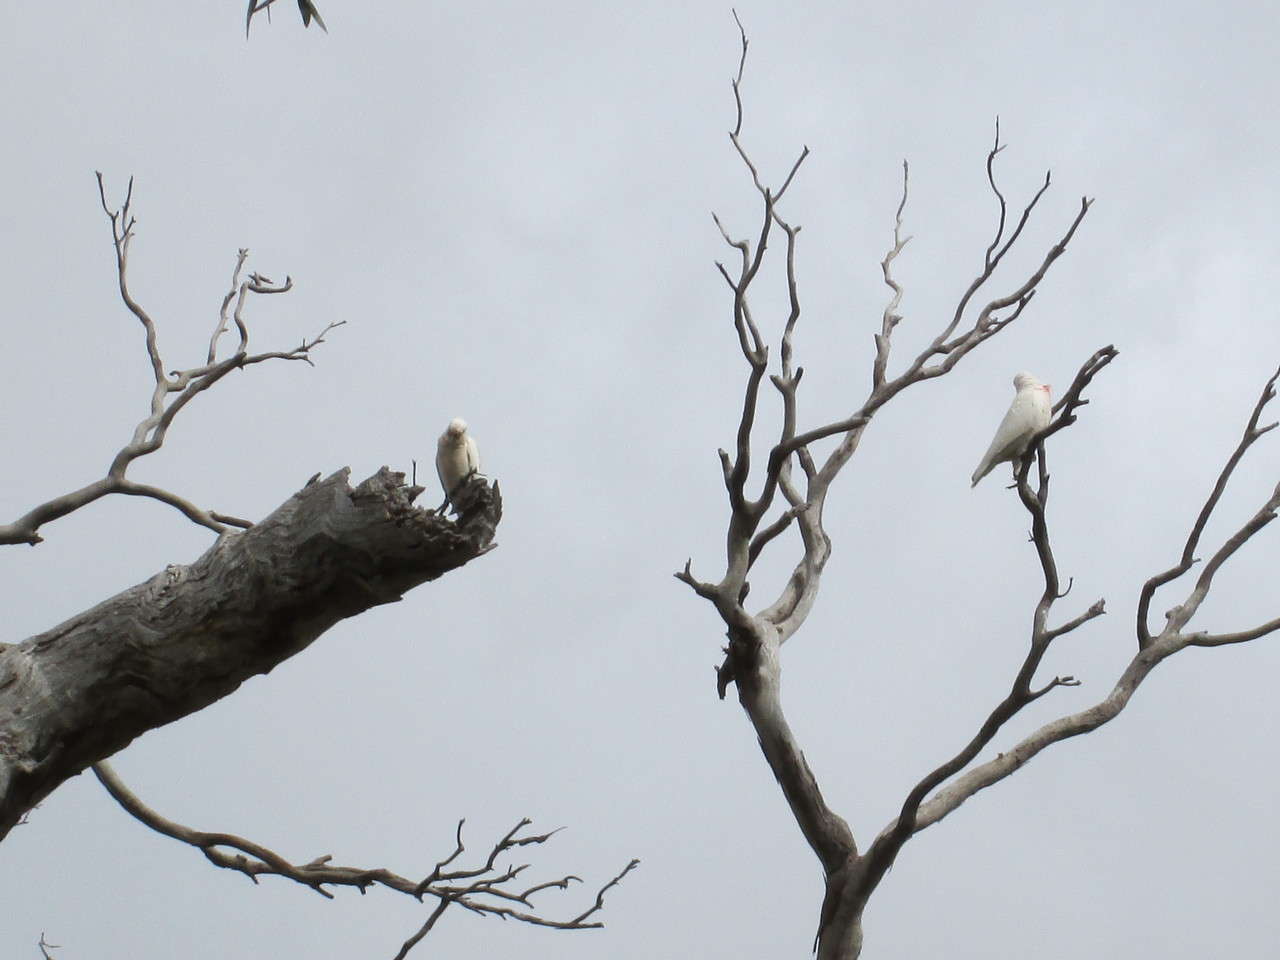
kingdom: Animalia
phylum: Chordata
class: Aves
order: Psittaciformes
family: Psittacidae
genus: Cacatua
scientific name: Cacatua tenuirostris
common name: Long-billed corella
